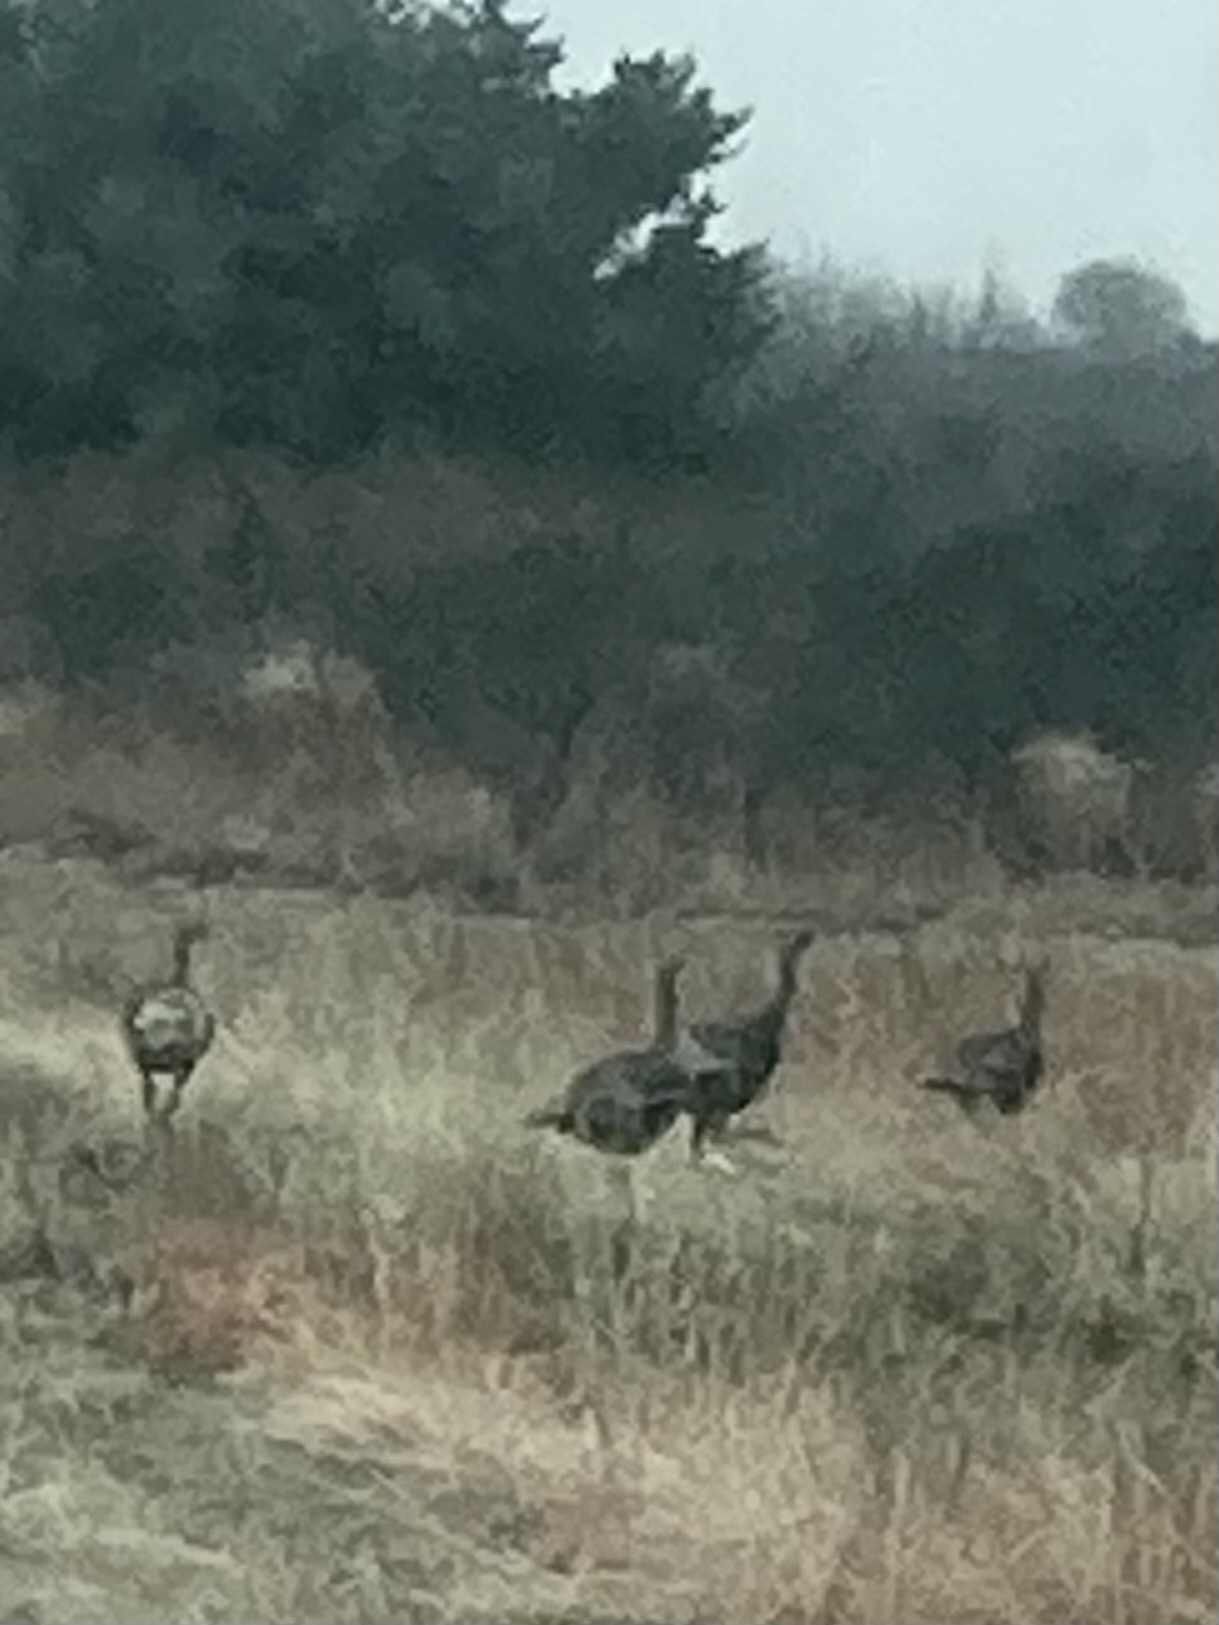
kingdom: Animalia
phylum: Chordata
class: Aves
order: Galliformes
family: Phasianidae
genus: Meleagris
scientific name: Meleagris gallopavo
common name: Wild turkey
